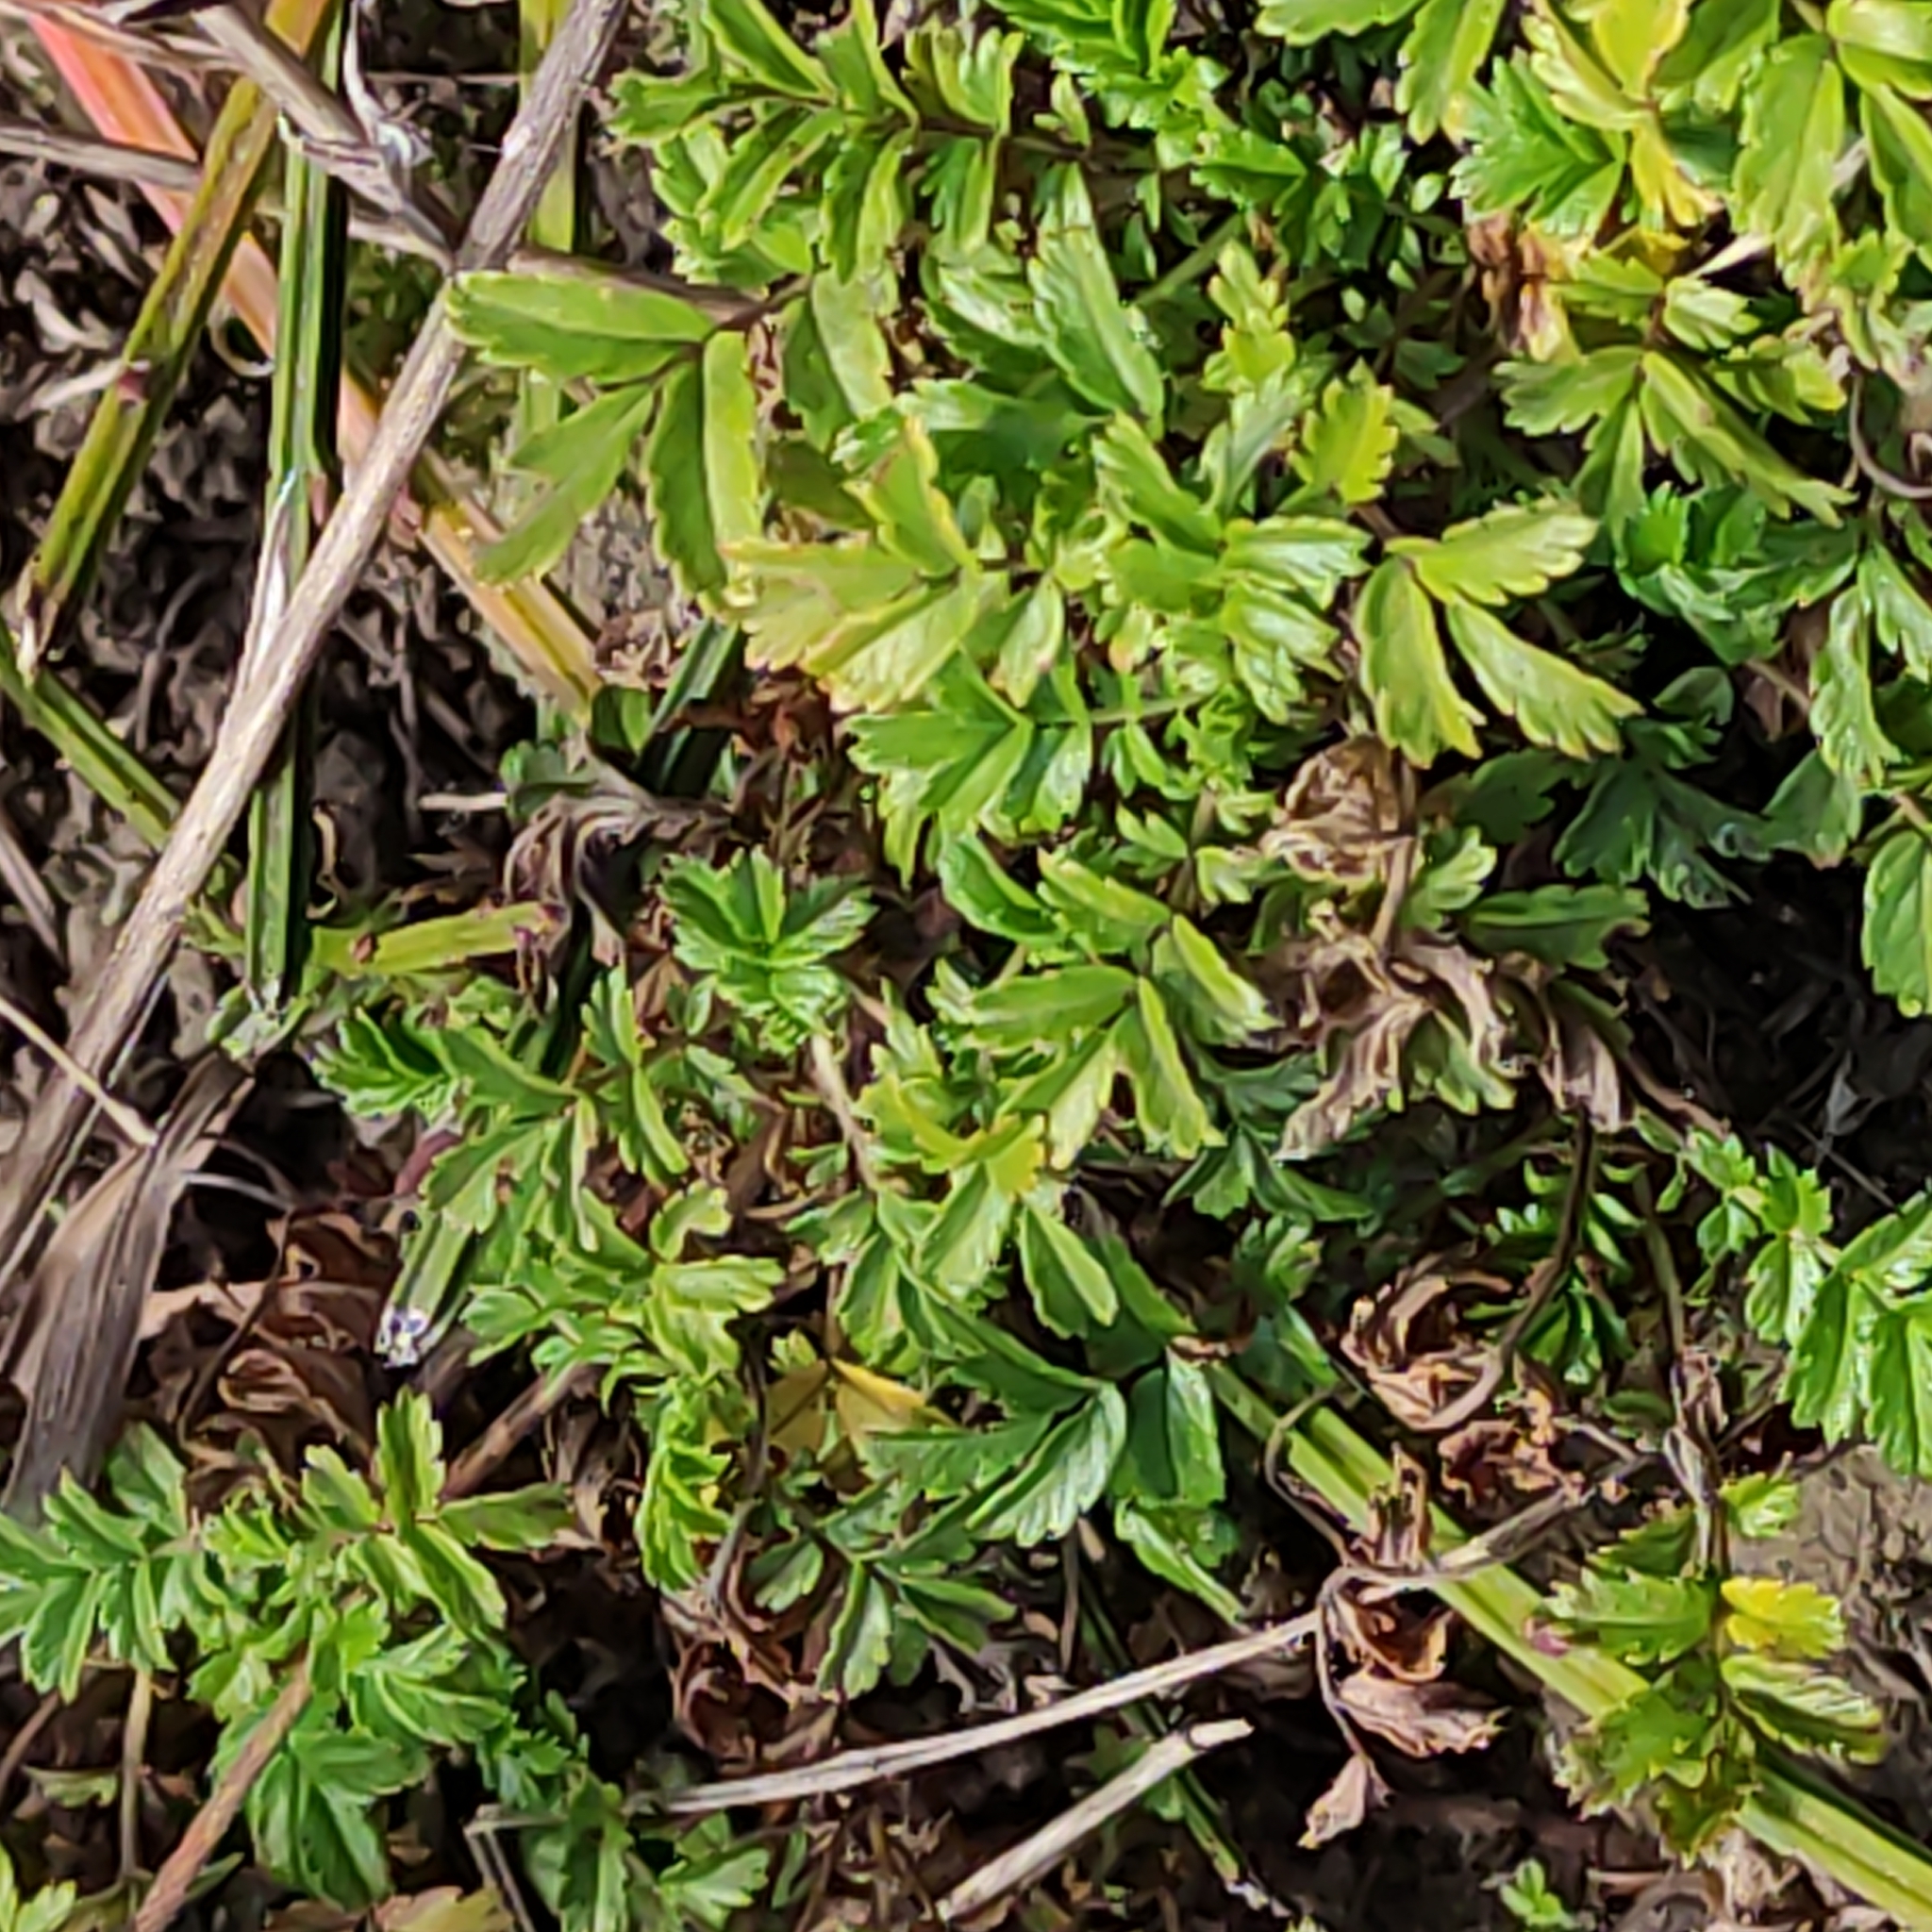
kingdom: Plantae
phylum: Tracheophyta
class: Magnoliopsida
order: Rosales
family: Rosaceae
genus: Acaena
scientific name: Acaena novae-zelandiae
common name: Pirri-pirri-bur
